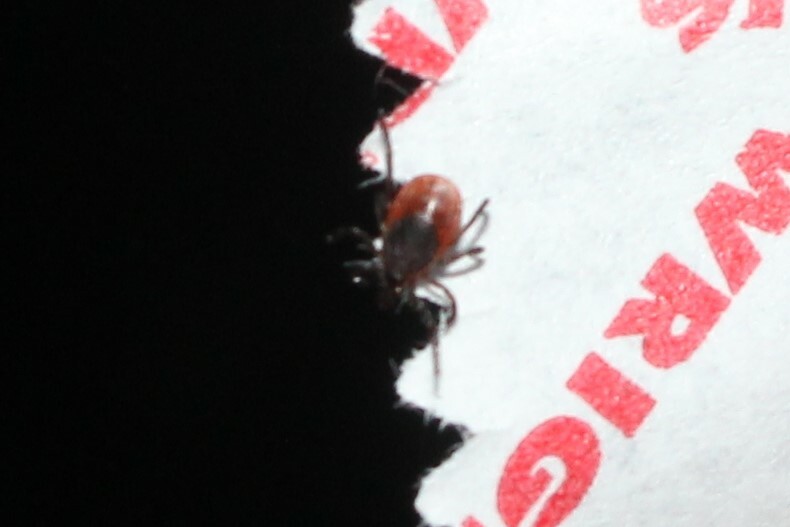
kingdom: Animalia
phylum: Arthropoda
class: Arachnida
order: Ixodida
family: Ixodidae
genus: Ixodes
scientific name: Ixodes scapularis
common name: Black legged tick
